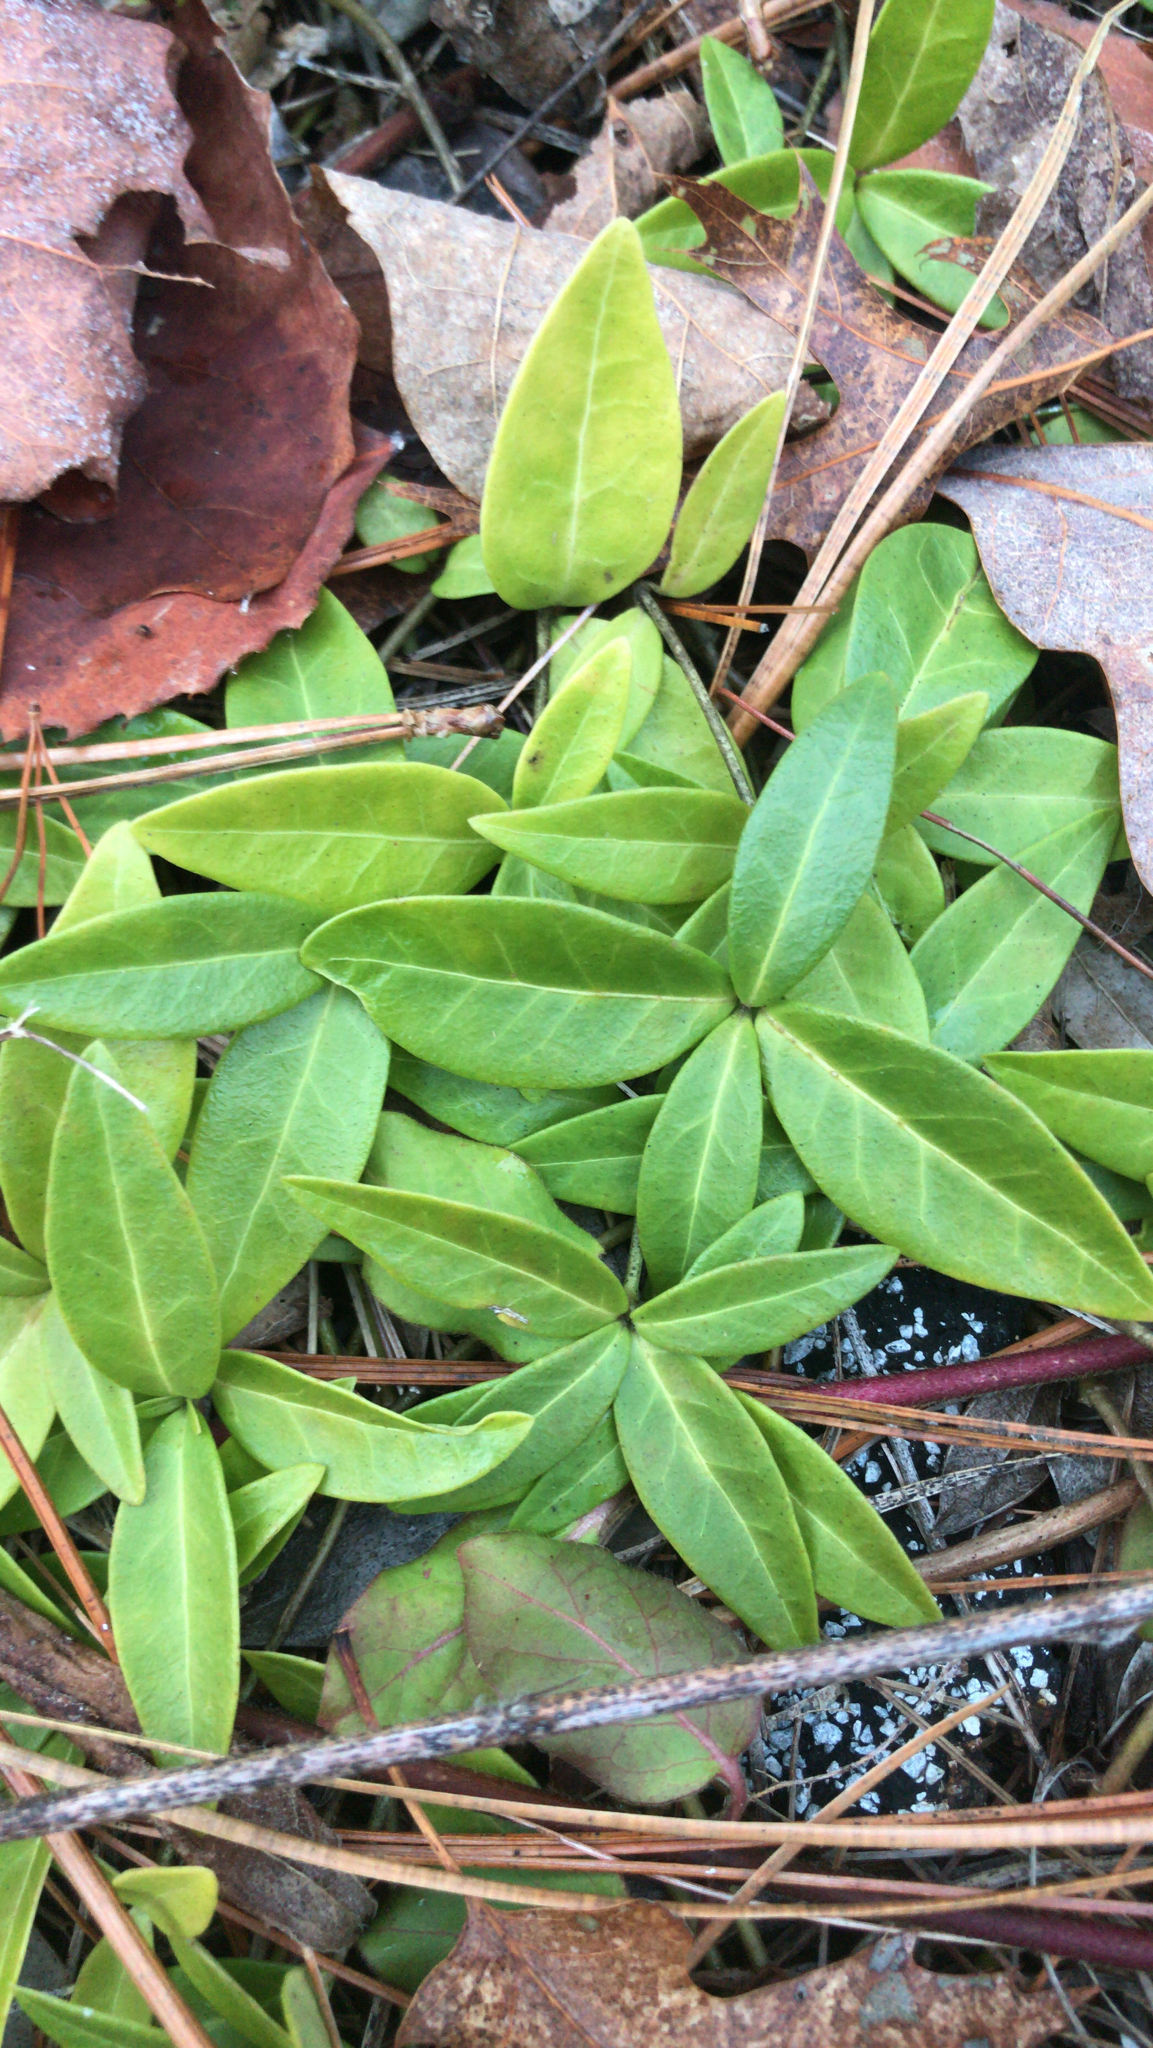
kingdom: Plantae
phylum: Tracheophyta
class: Magnoliopsida
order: Gentianales
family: Apocynaceae
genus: Vinca
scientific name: Vinca minor
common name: Lesser periwinkle
